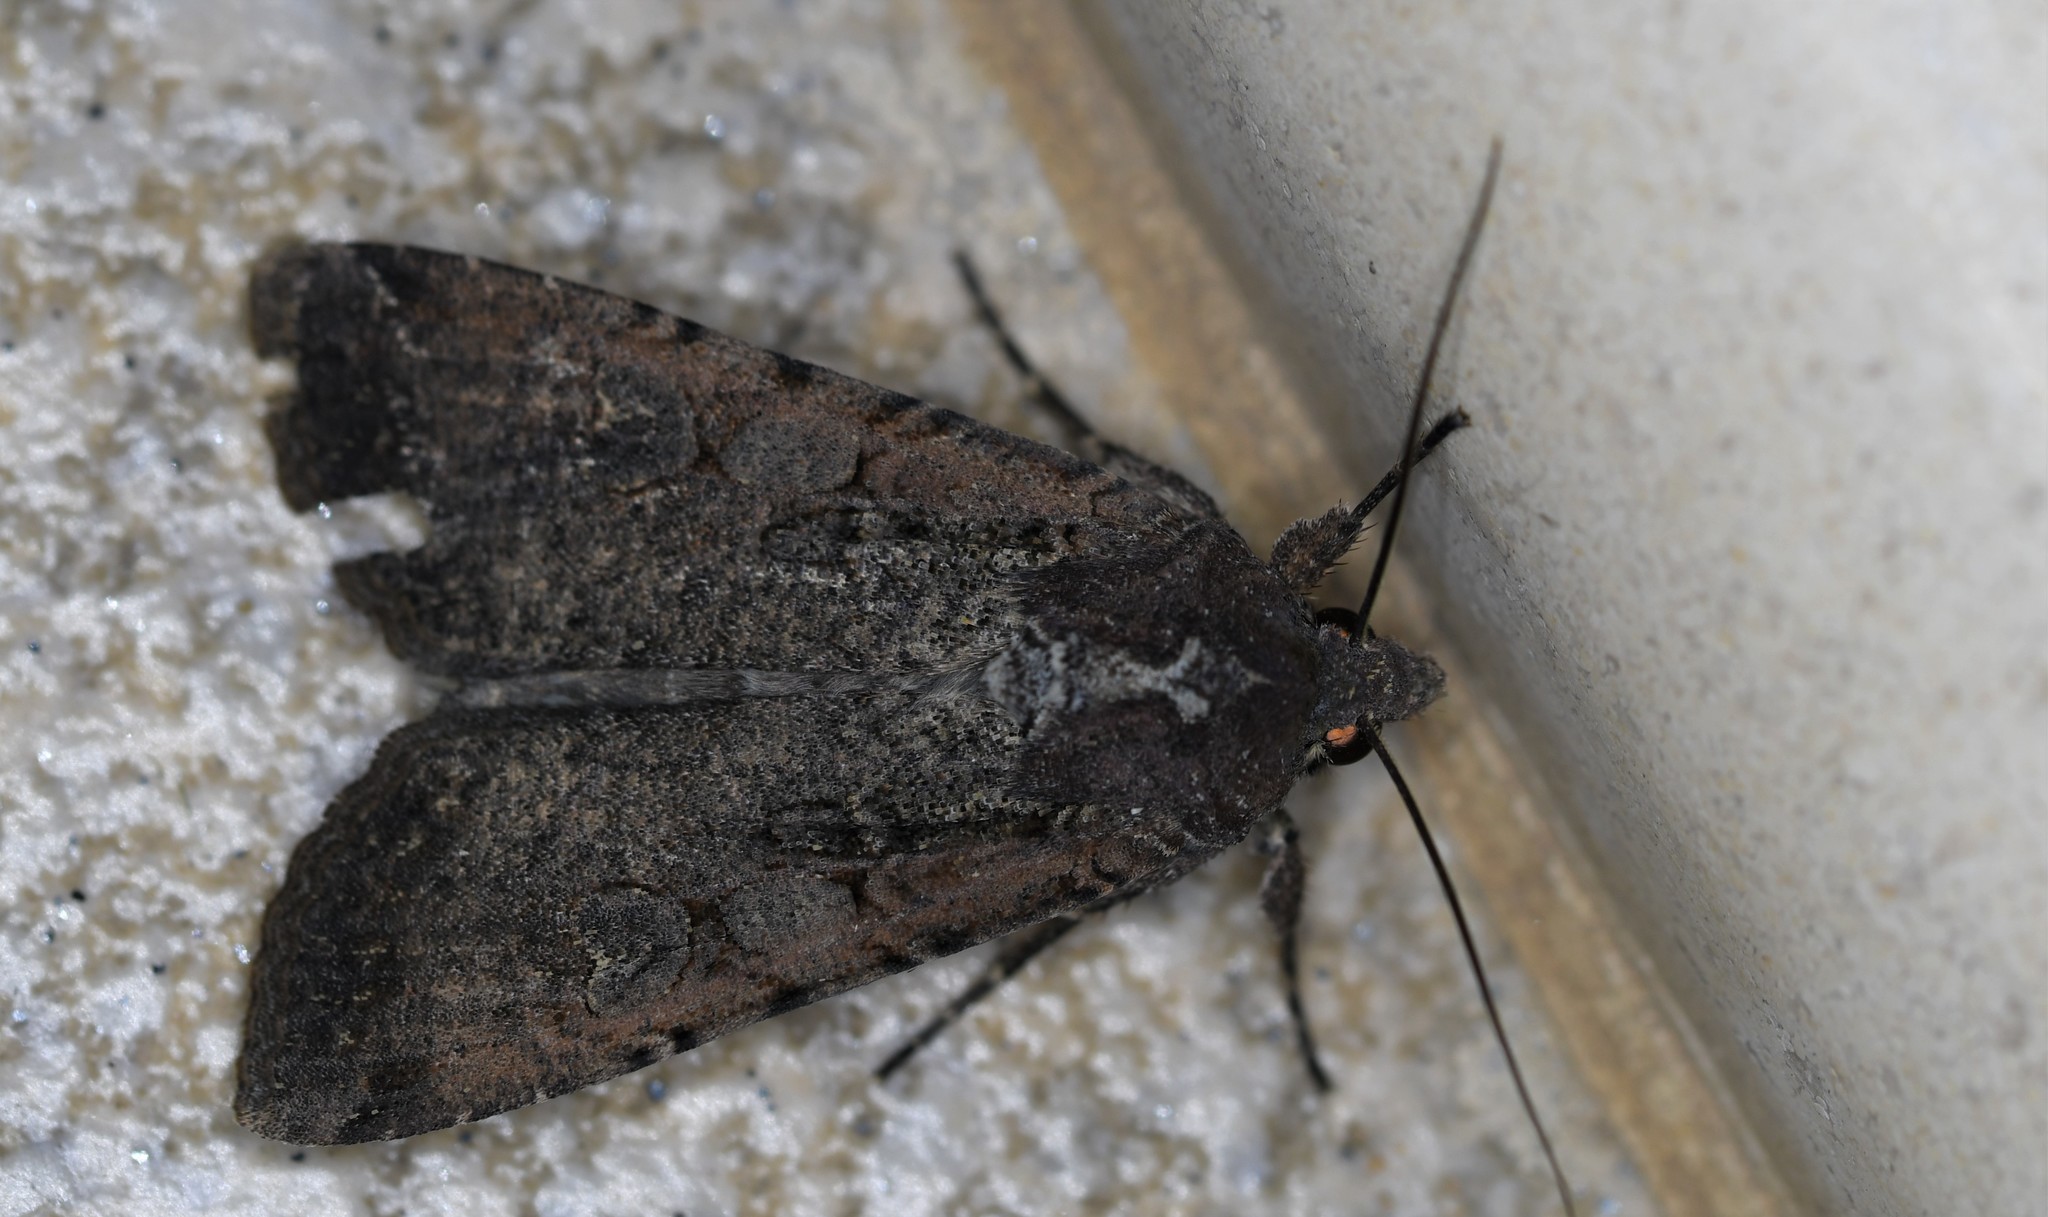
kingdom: Animalia
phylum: Arthropoda
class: Insecta
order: Lepidoptera
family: Noctuidae
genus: Peridroma
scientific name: Peridroma saucia
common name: Pearly underwing
